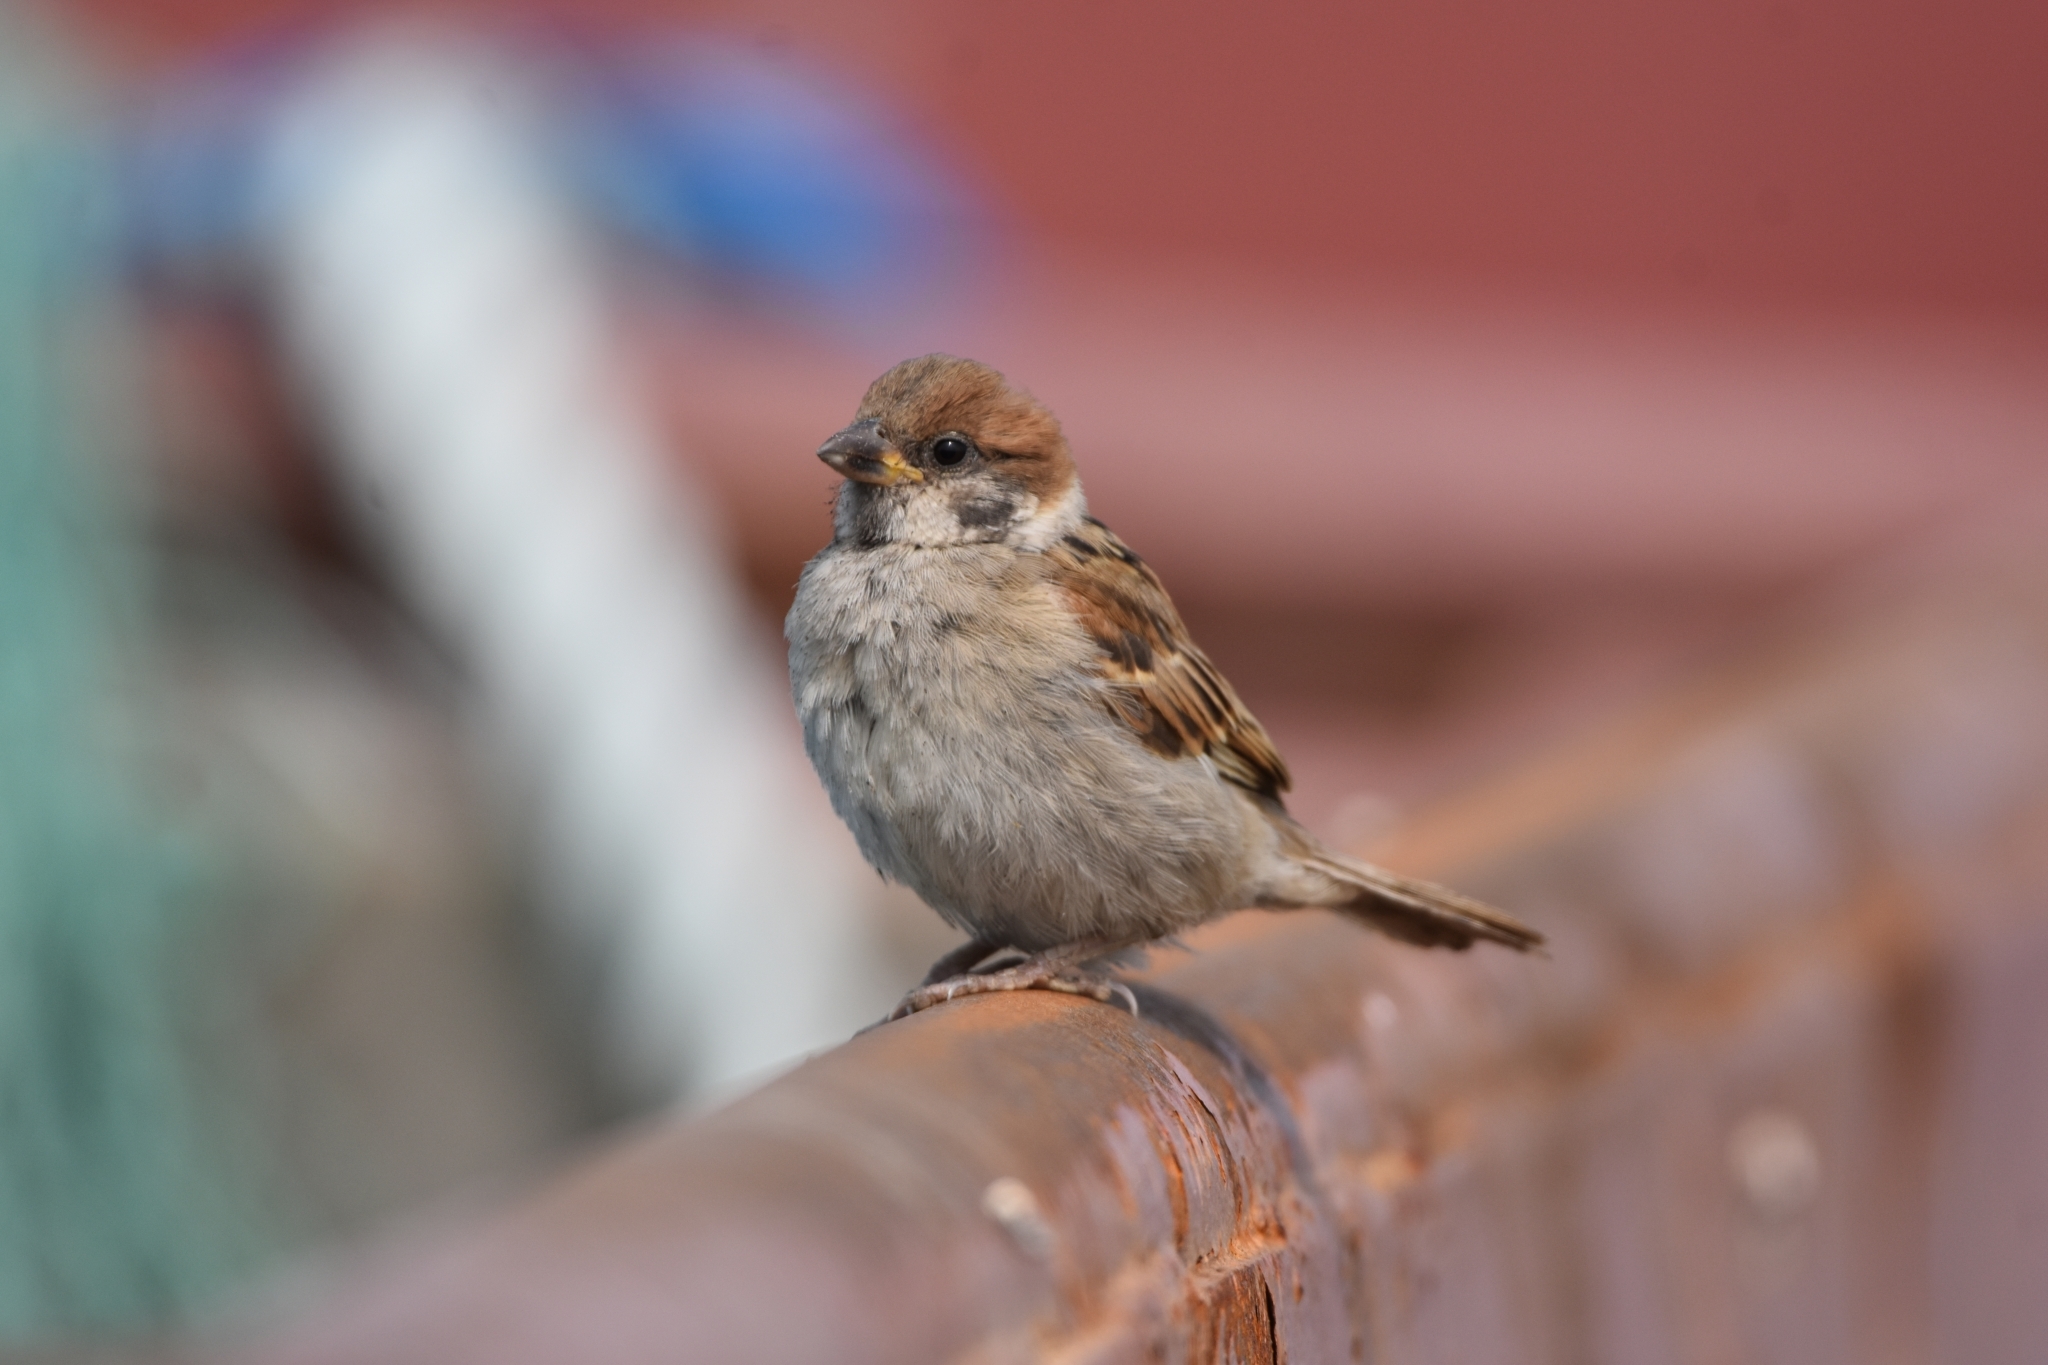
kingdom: Animalia
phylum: Chordata
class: Aves
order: Passeriformes
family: Passeridae
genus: Passer
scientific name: Passer montanus
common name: Eurasian tree sparrow
